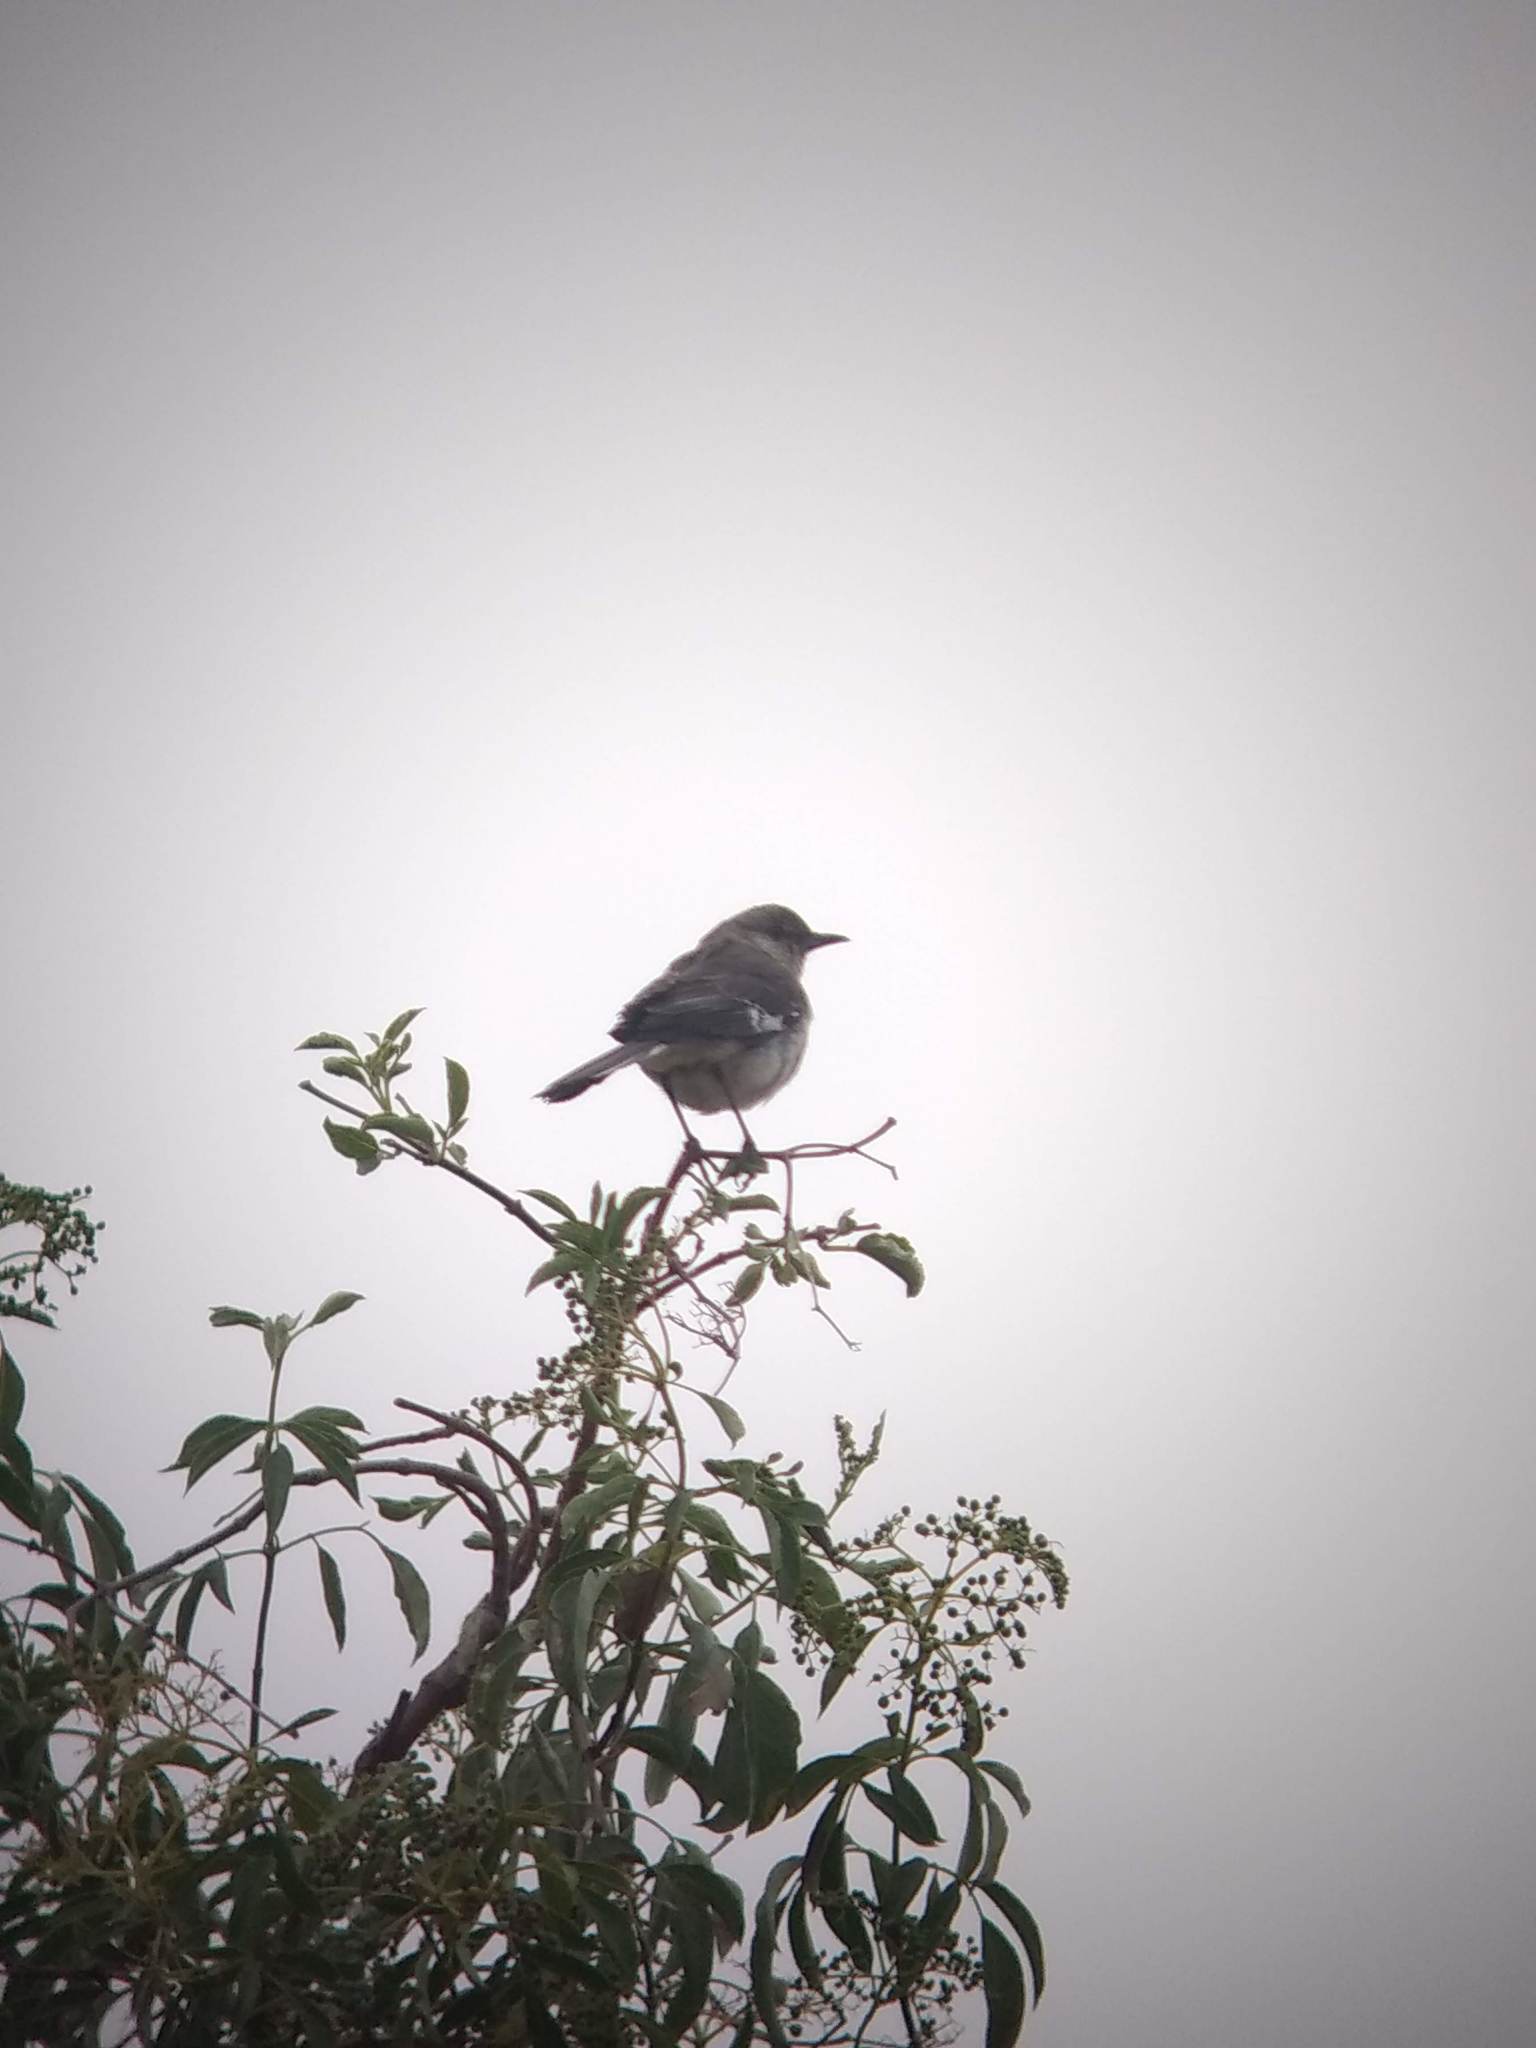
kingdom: Animalia
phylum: Chordata
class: Aves
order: Passeriformes
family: Mimidae
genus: Mimus
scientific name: Mimus polyglottos
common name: Northern mockingbird
